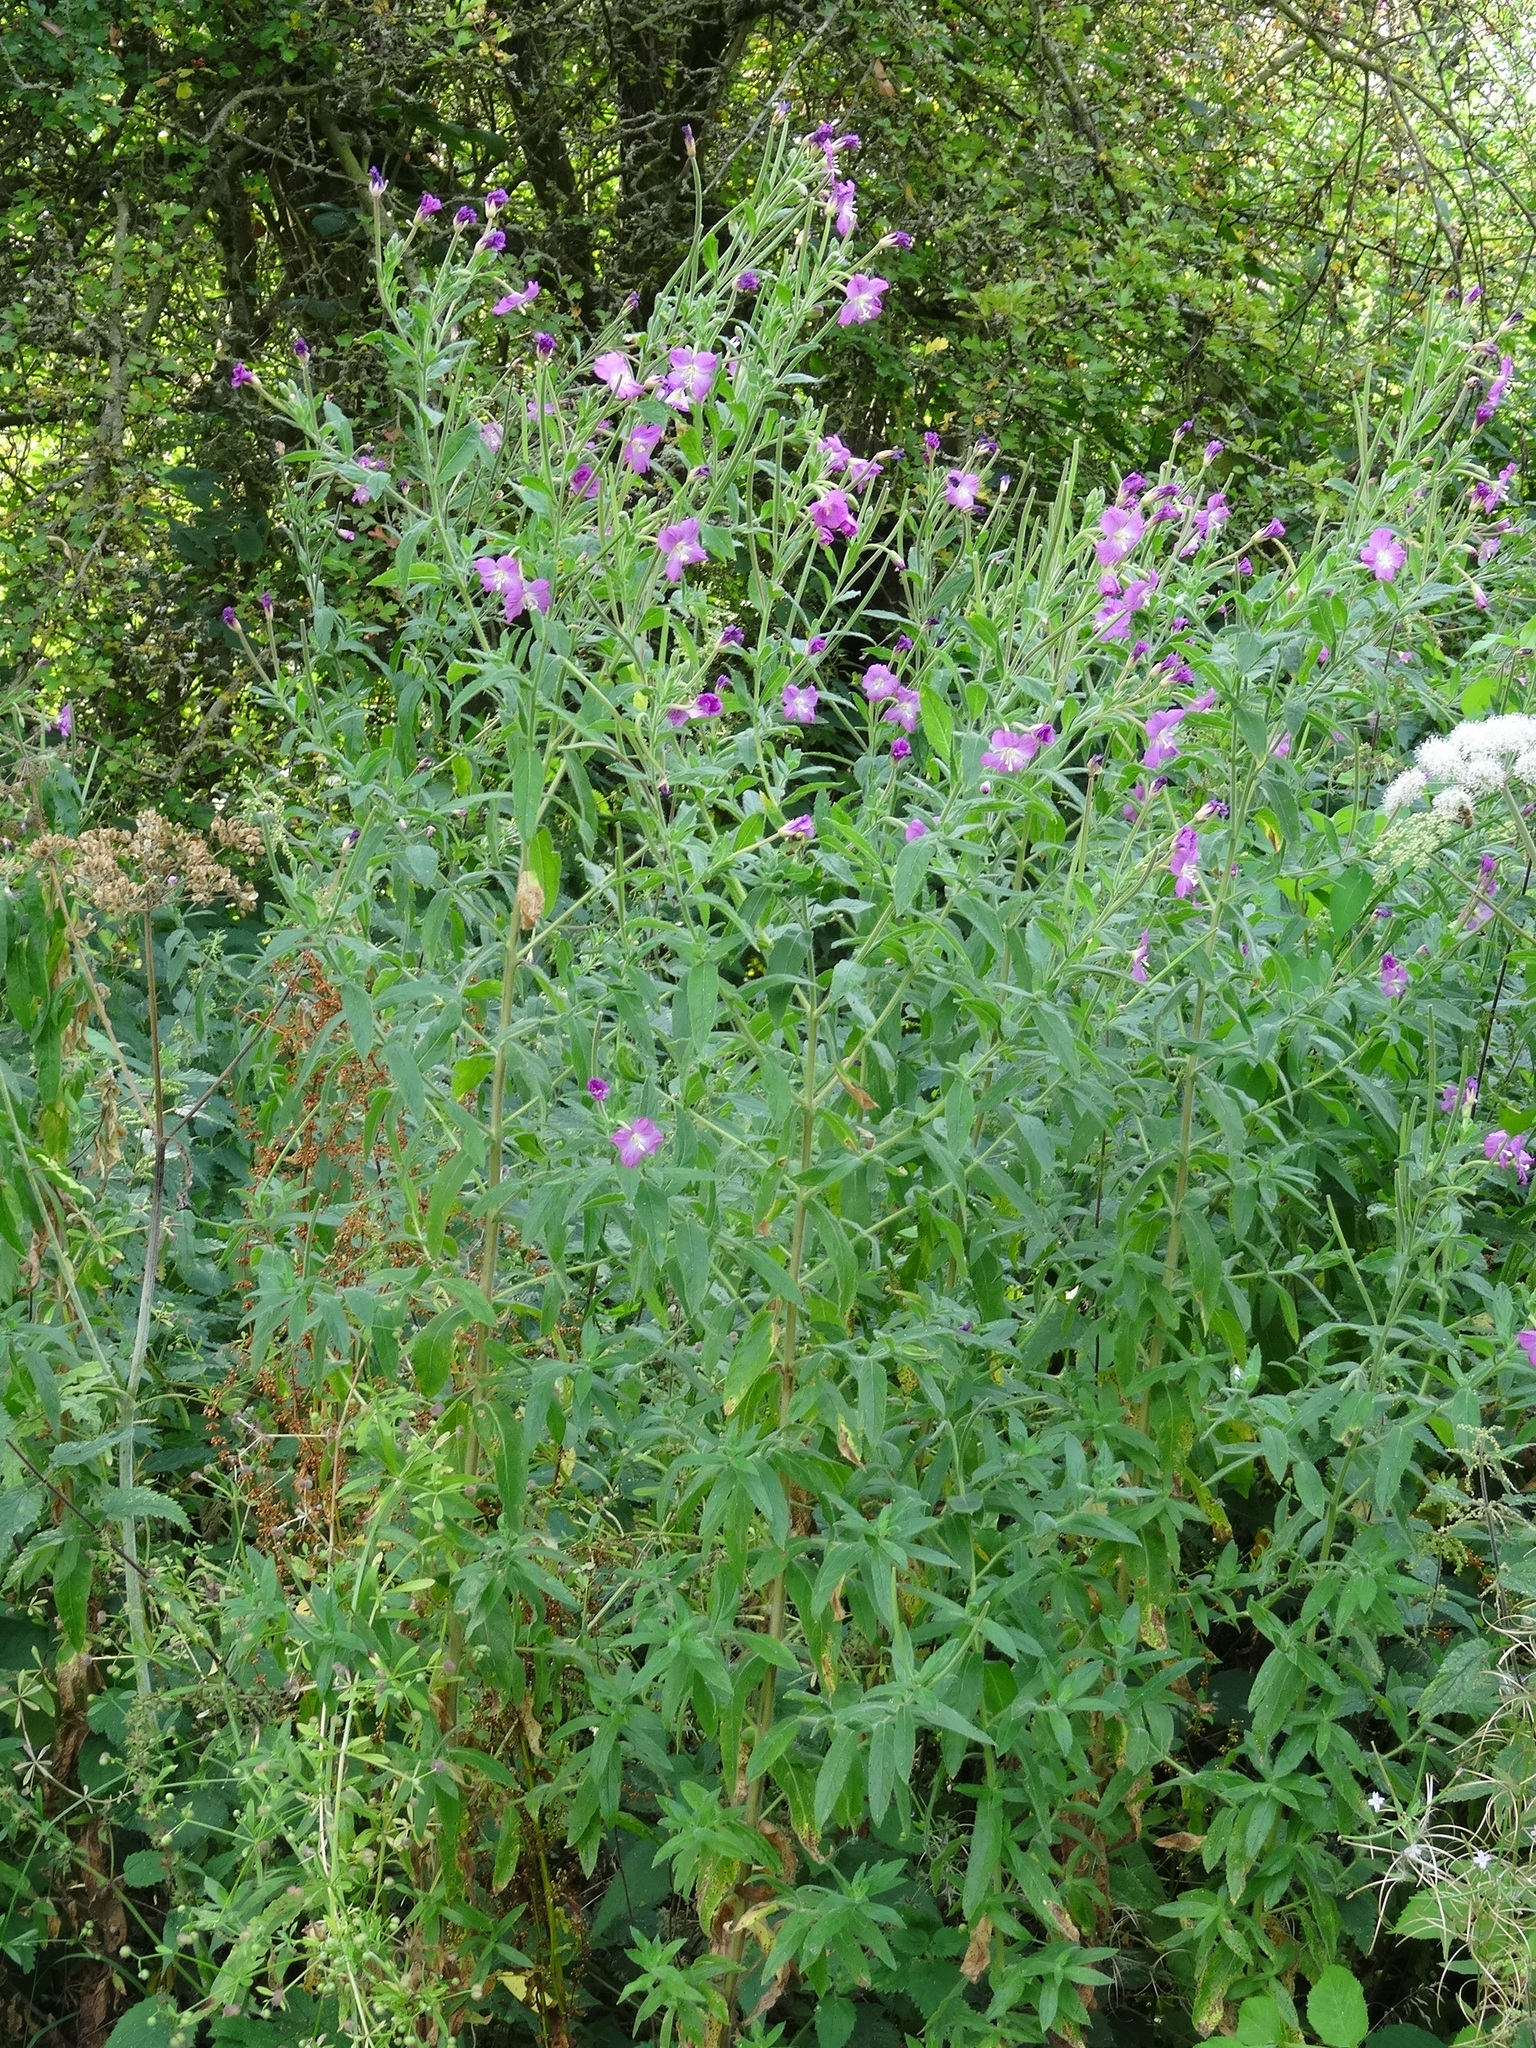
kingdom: Plantae
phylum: Tracheophyta
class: Magnoliopsida
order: Myrtales
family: Onagraceae
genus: Epilobium
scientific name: Epilobium hirsutum
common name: Great willowherb
